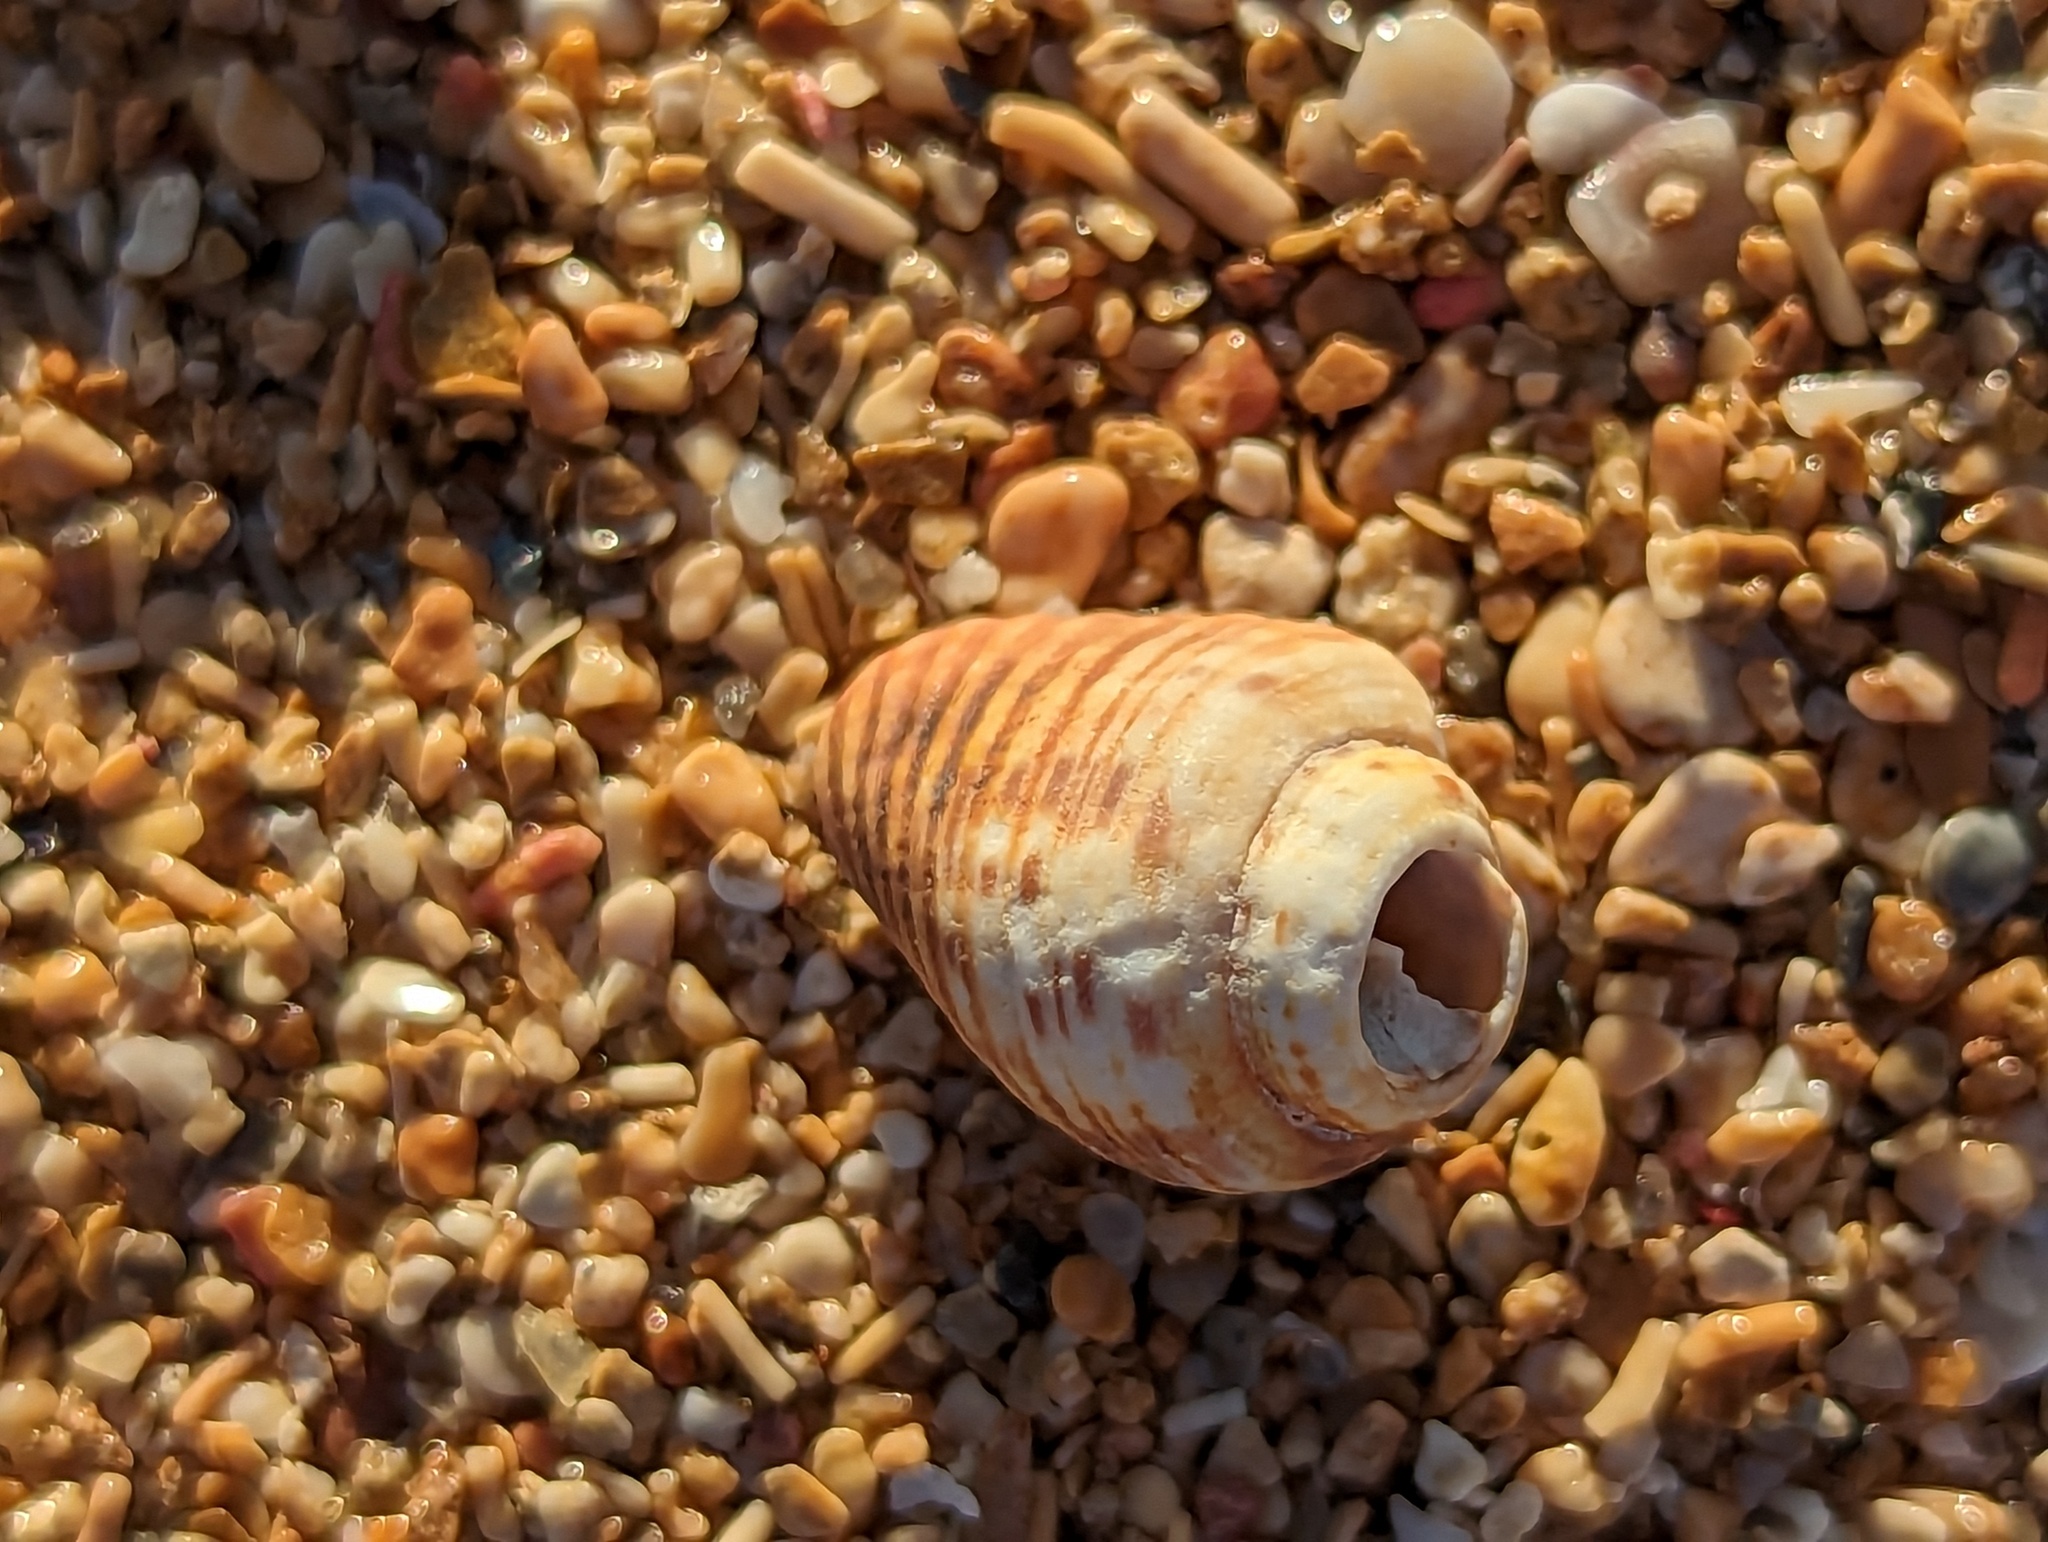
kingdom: Animalia
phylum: Mollusca
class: Gastropoda
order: Neogastropoda
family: Columbellidae
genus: Columbella
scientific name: Columbella mercatoria
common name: West indian dovesnail
